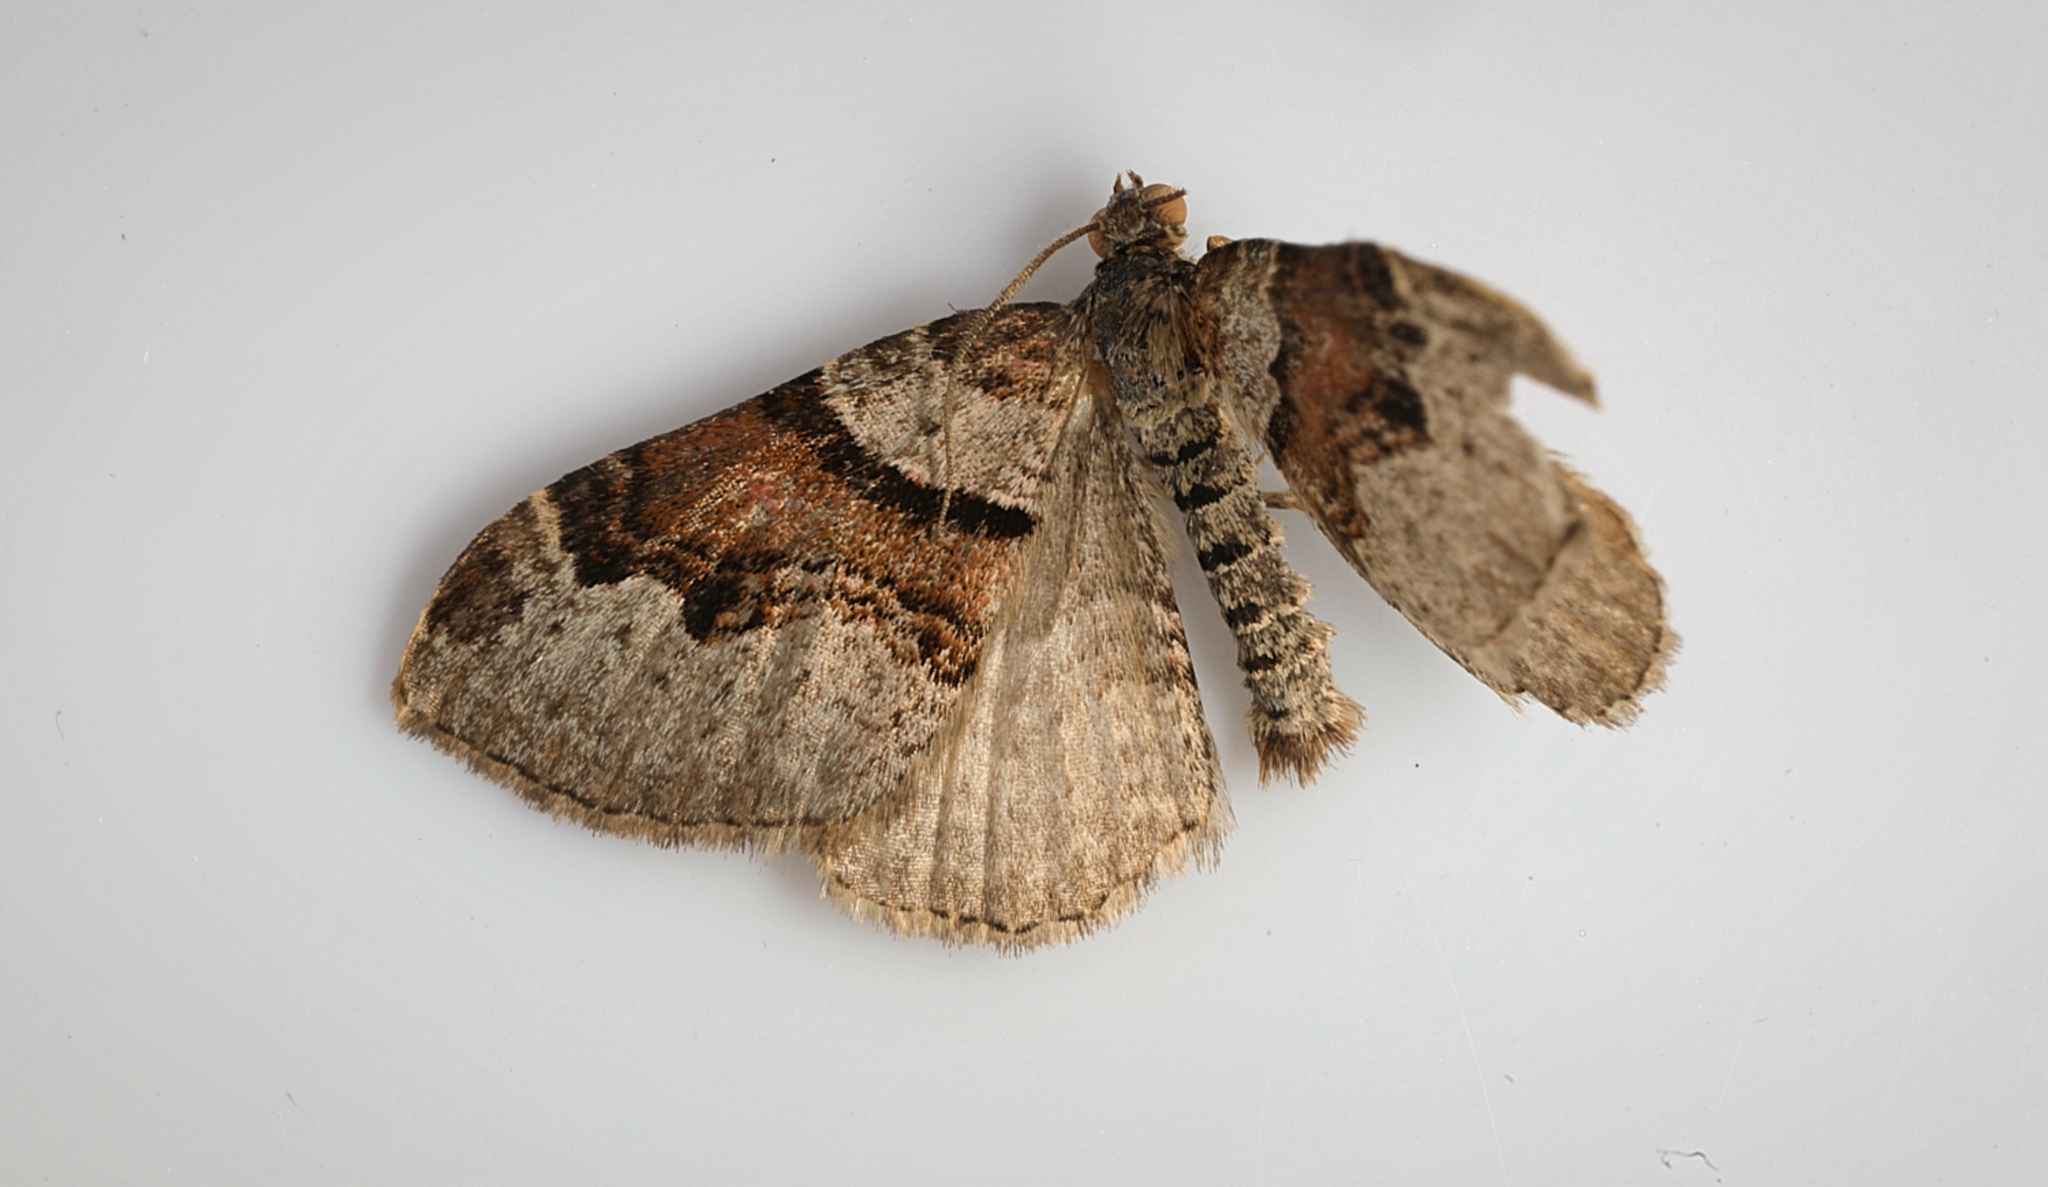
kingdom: Animalia
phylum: Arthropoda
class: Insecta
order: Lepidoptera
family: Geometridae
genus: Xanthorhoe
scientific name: Xanthorhoe designata
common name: Flame carpet
